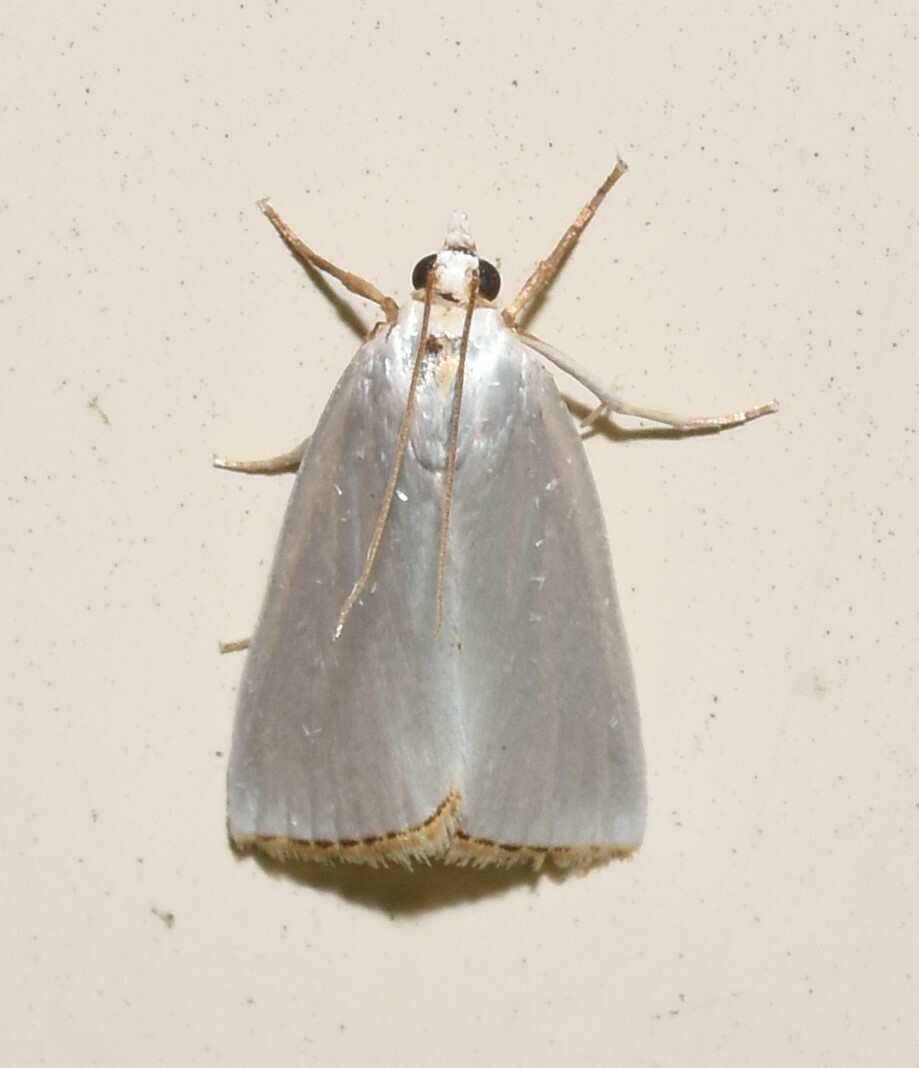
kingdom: Animalia
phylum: Arthropoda
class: Insecta
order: Lepidoptera
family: Crambidae
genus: Argyria
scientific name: Argyria nivalis
